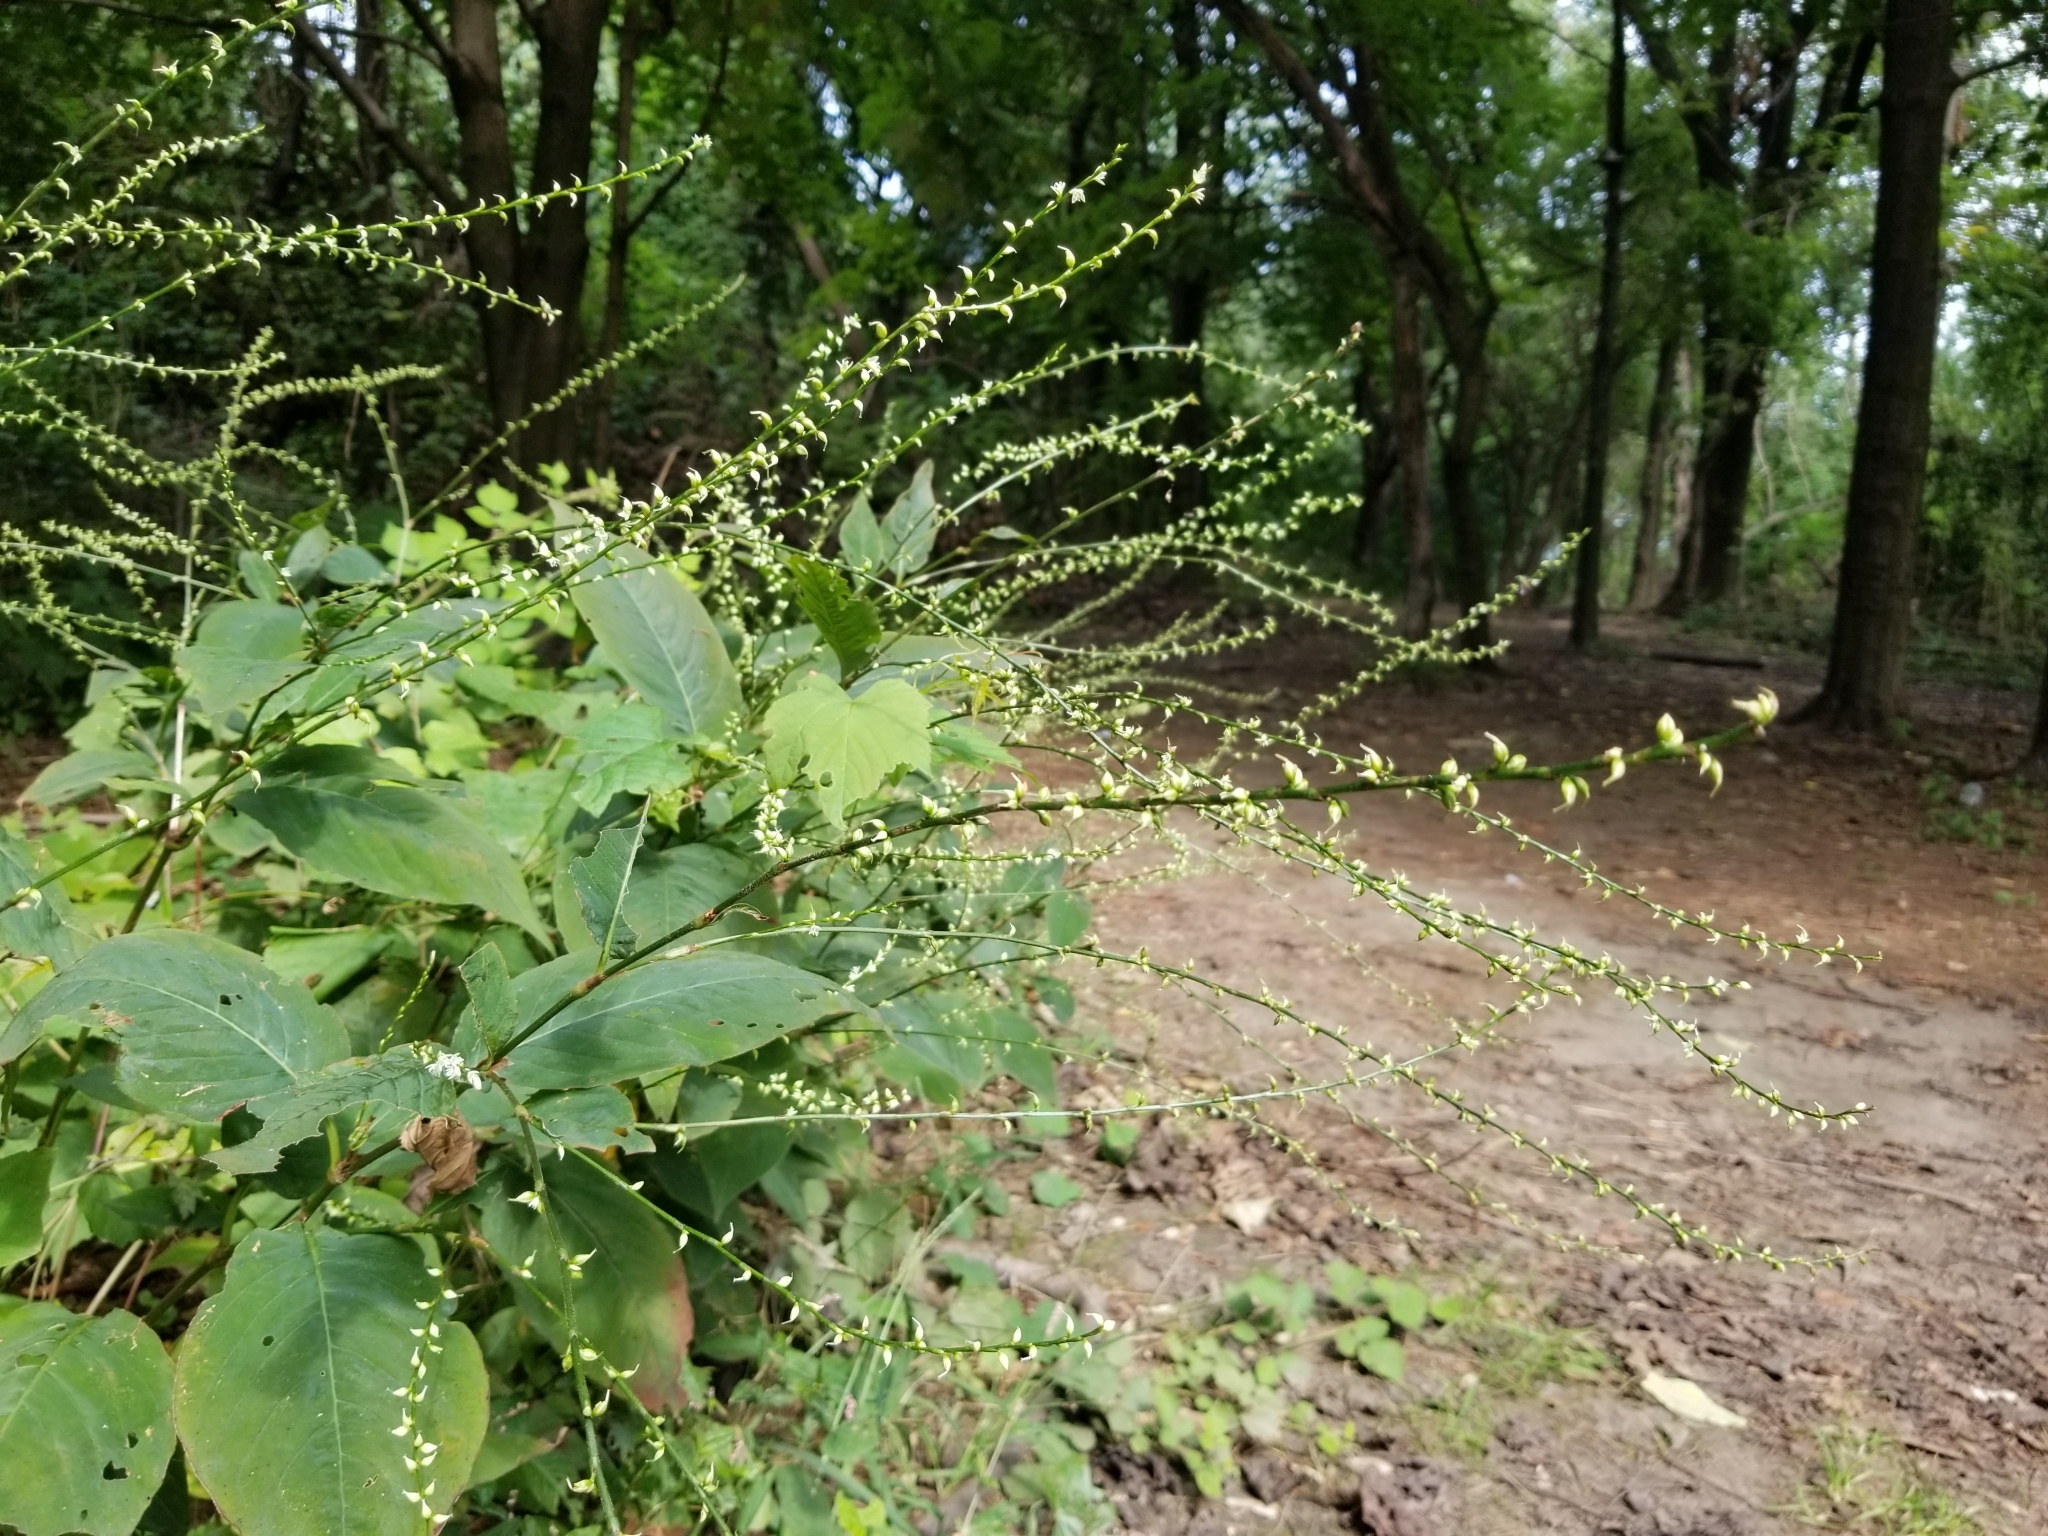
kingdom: Plantae
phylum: Tracheophyta
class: Magnoliopsida
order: Caryophyllales
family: Polygonaceae
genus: Persicaria
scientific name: Persicaria virginiana
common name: Jumpseed
